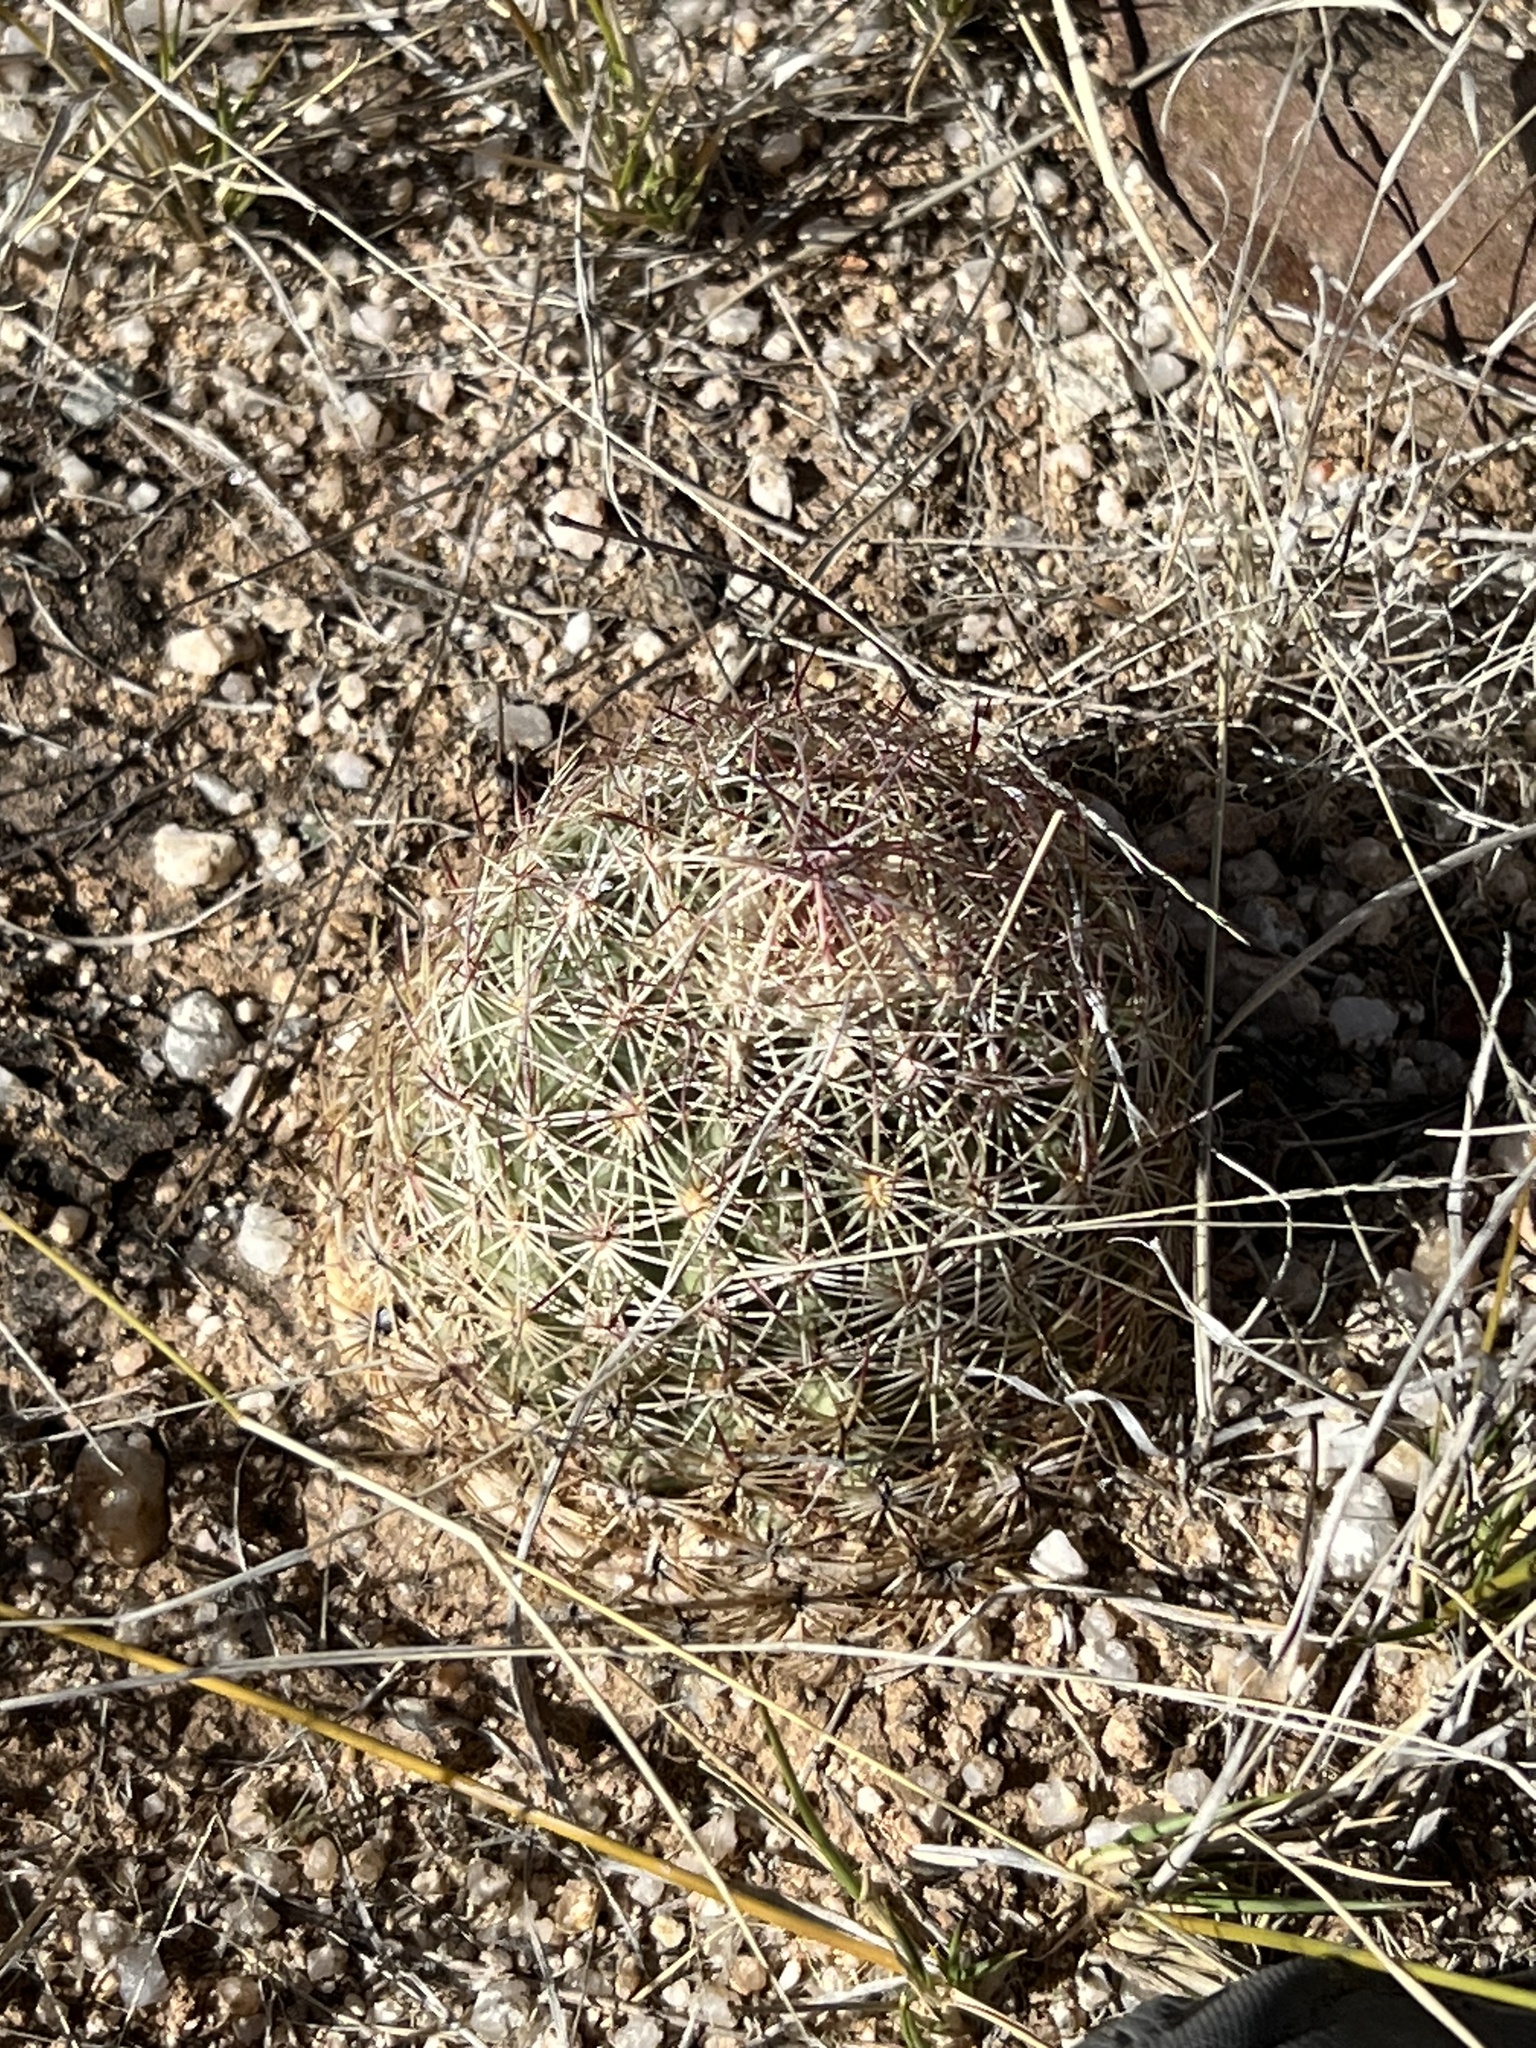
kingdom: Plantae
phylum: Tracheophyta
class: Magnoliopsida
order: Caryophyllales
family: Cactaceae
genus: Sclerocactus
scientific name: Sclerocactus johnsonii
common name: Eight-spine fishhook cactus
